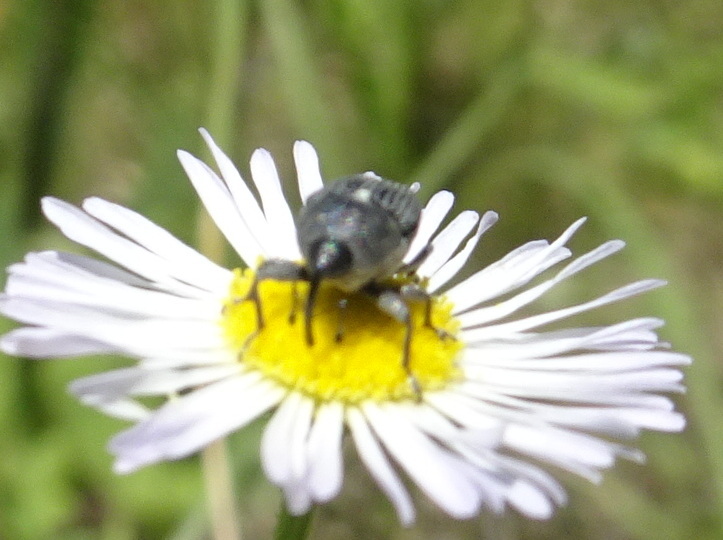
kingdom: Animalia
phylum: Arthropoda
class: Insecta
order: Coleoptera
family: Curculionidae
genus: Odontocorynus
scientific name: Odontocorynus salebrosus
